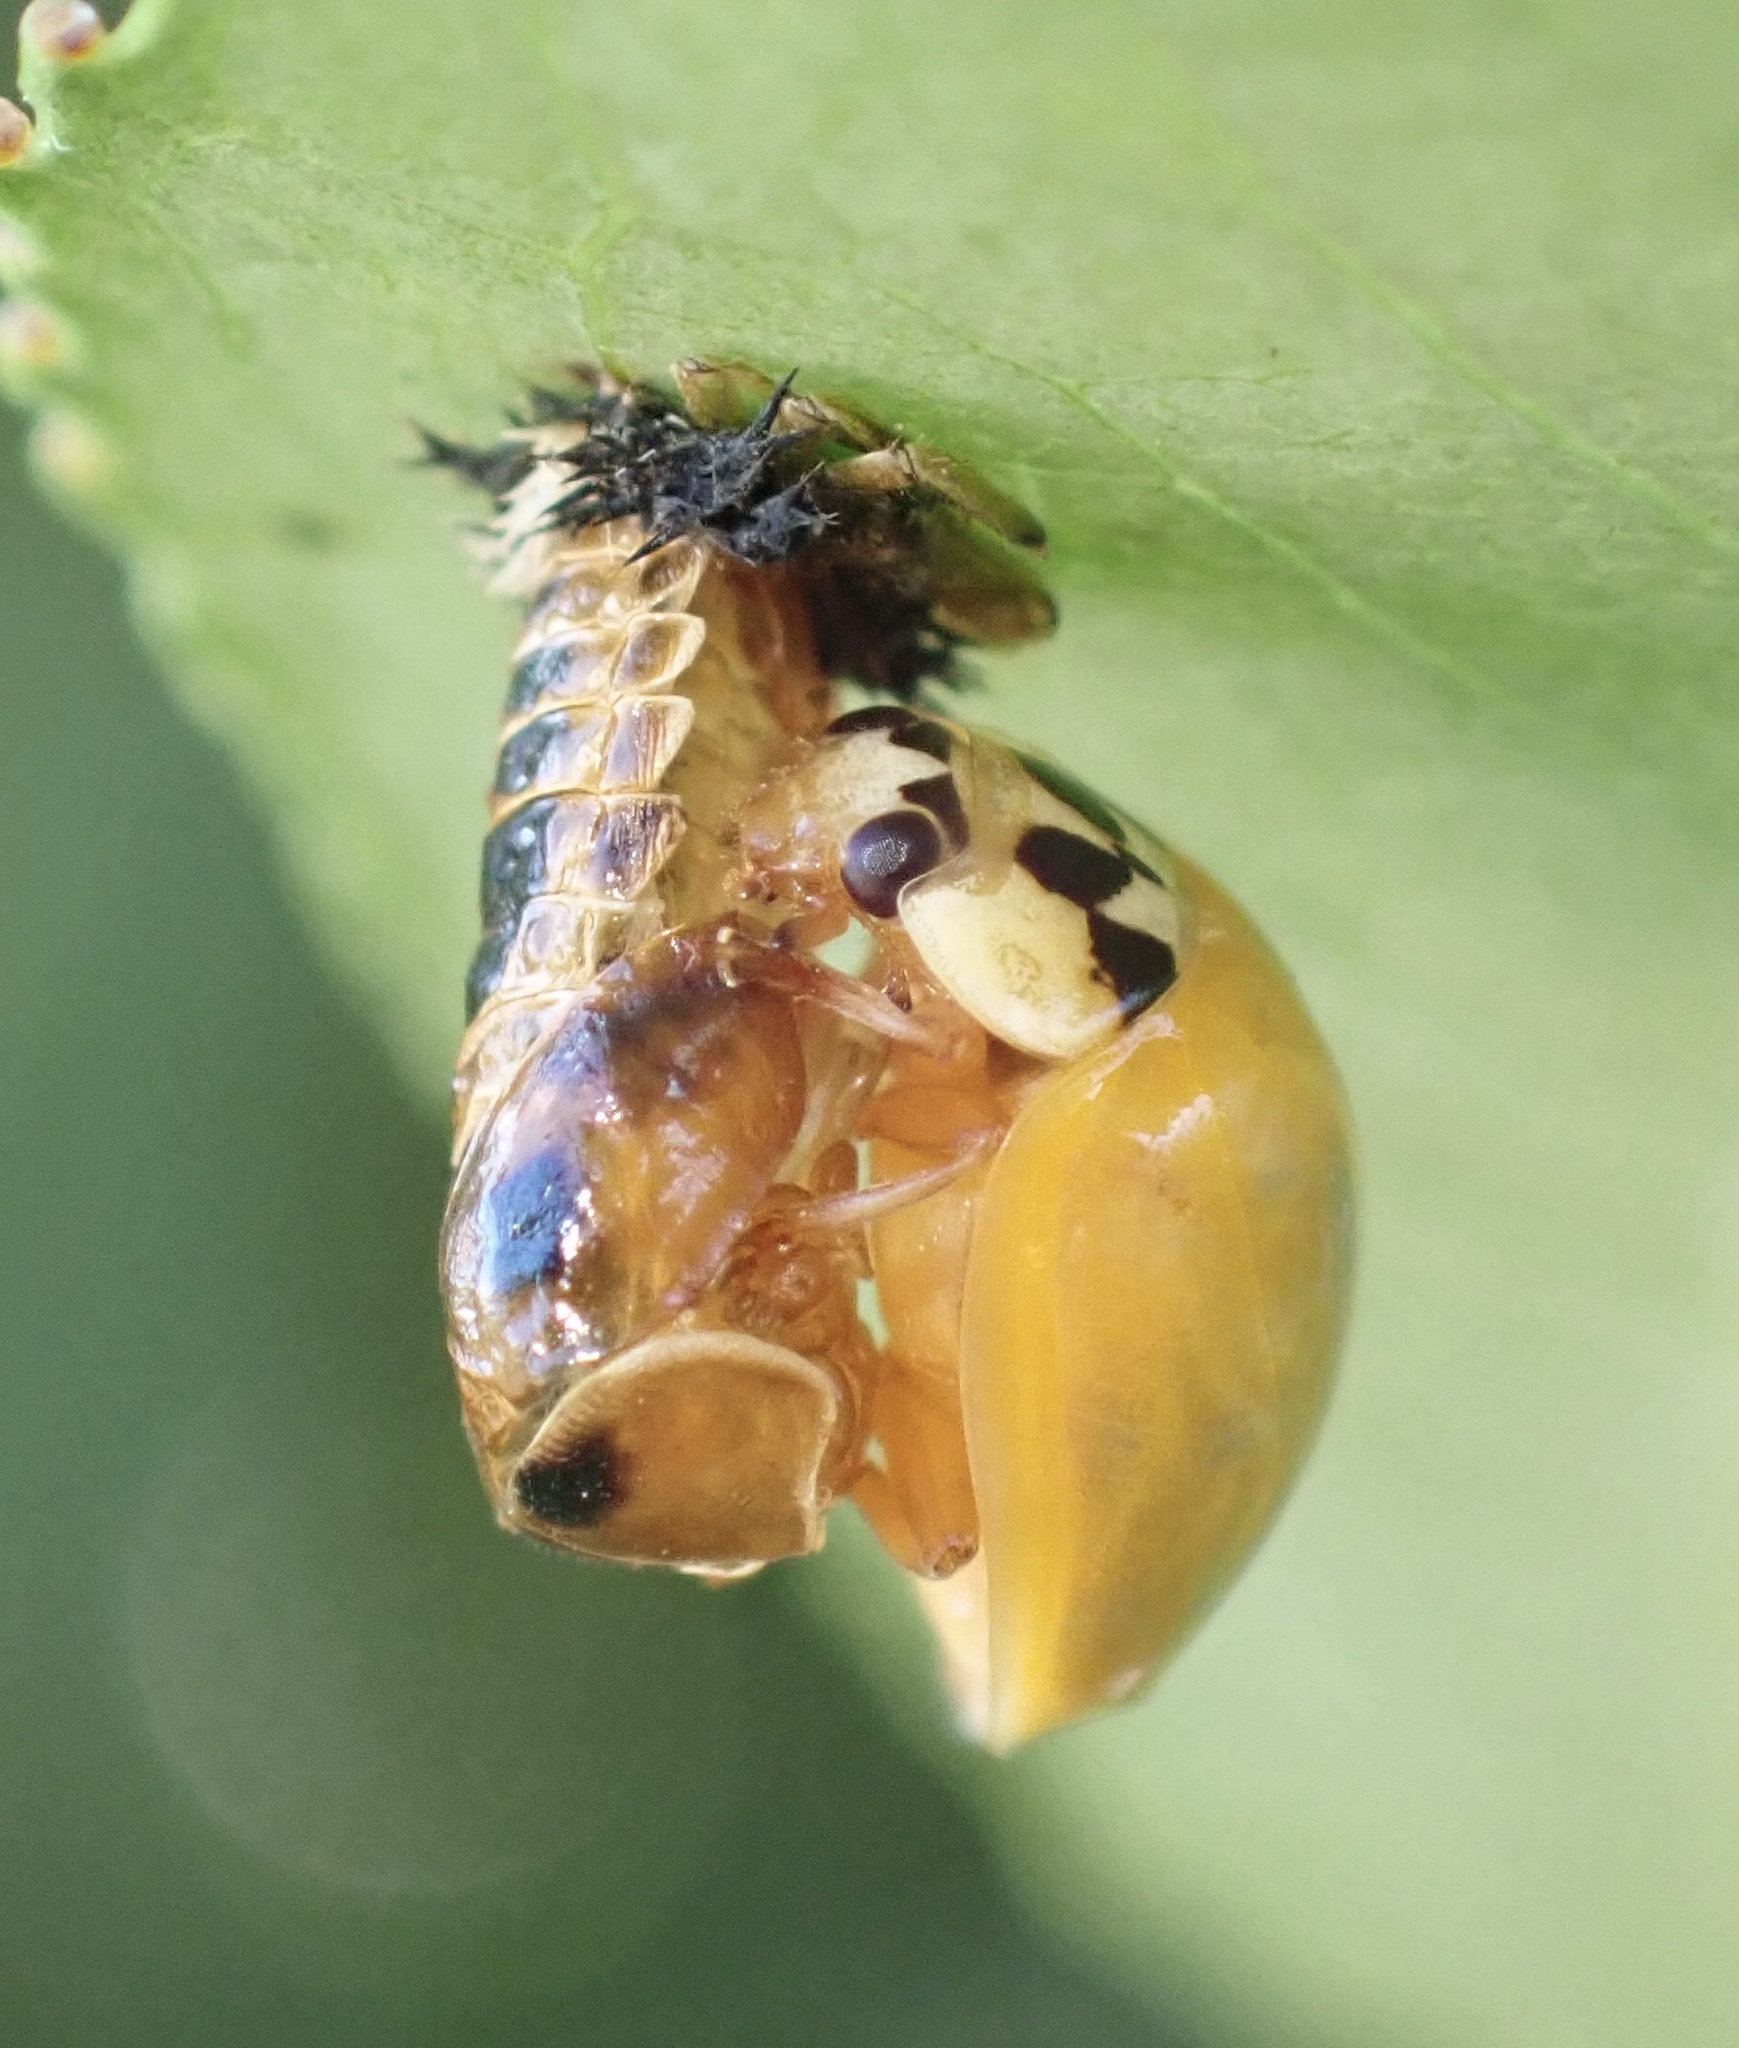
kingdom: Animalia
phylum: Arthropoda
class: Insecta
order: Coleoptera
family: Coccinellidae
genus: Harmonia
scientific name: Harmonia axyridis
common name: Harlequin ladybird
